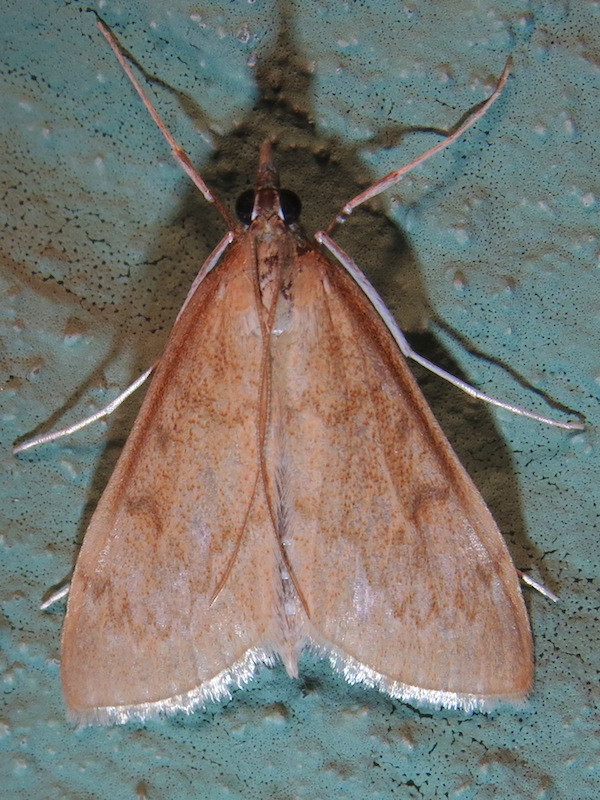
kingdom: Animalia
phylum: Arthropoda
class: Insecta
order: Lepidoptera
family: Crambidae
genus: Saucrobotys
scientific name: Saucrobotys futilalis
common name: Dogbane saucrobotys moth
